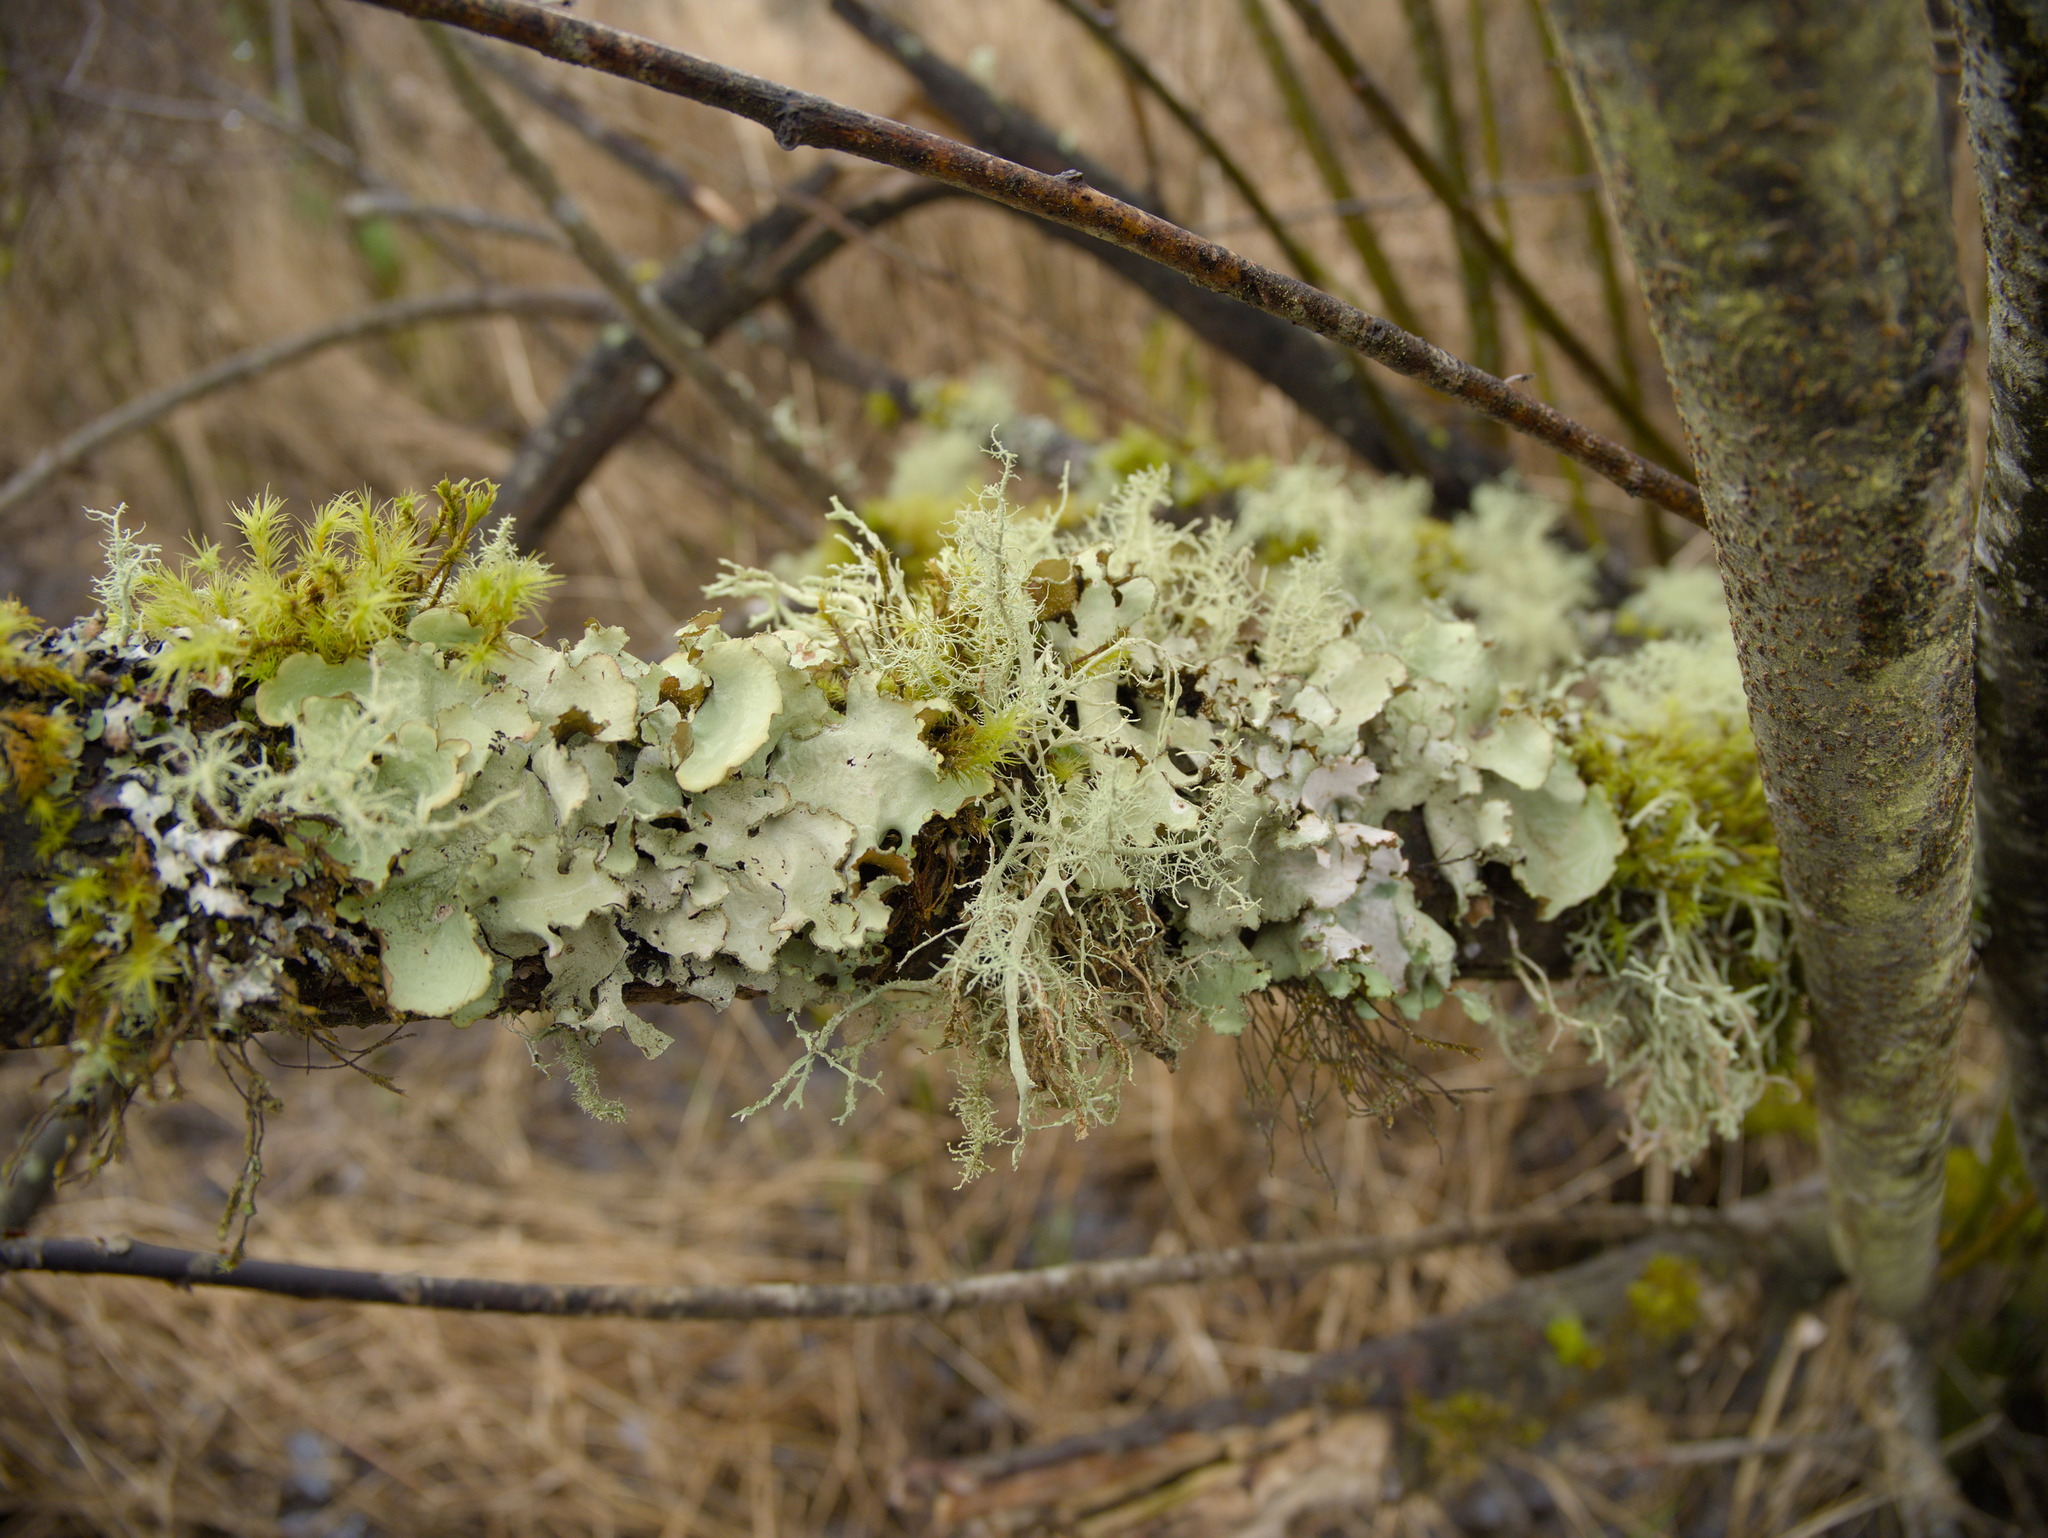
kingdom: Fungi
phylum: Ascomycota
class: Lecanoromycetes
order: Lecanorales
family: Parmeliaceae
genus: Cetrelia
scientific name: Cetrelia cetrarioides
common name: Speckled iceland lichen
